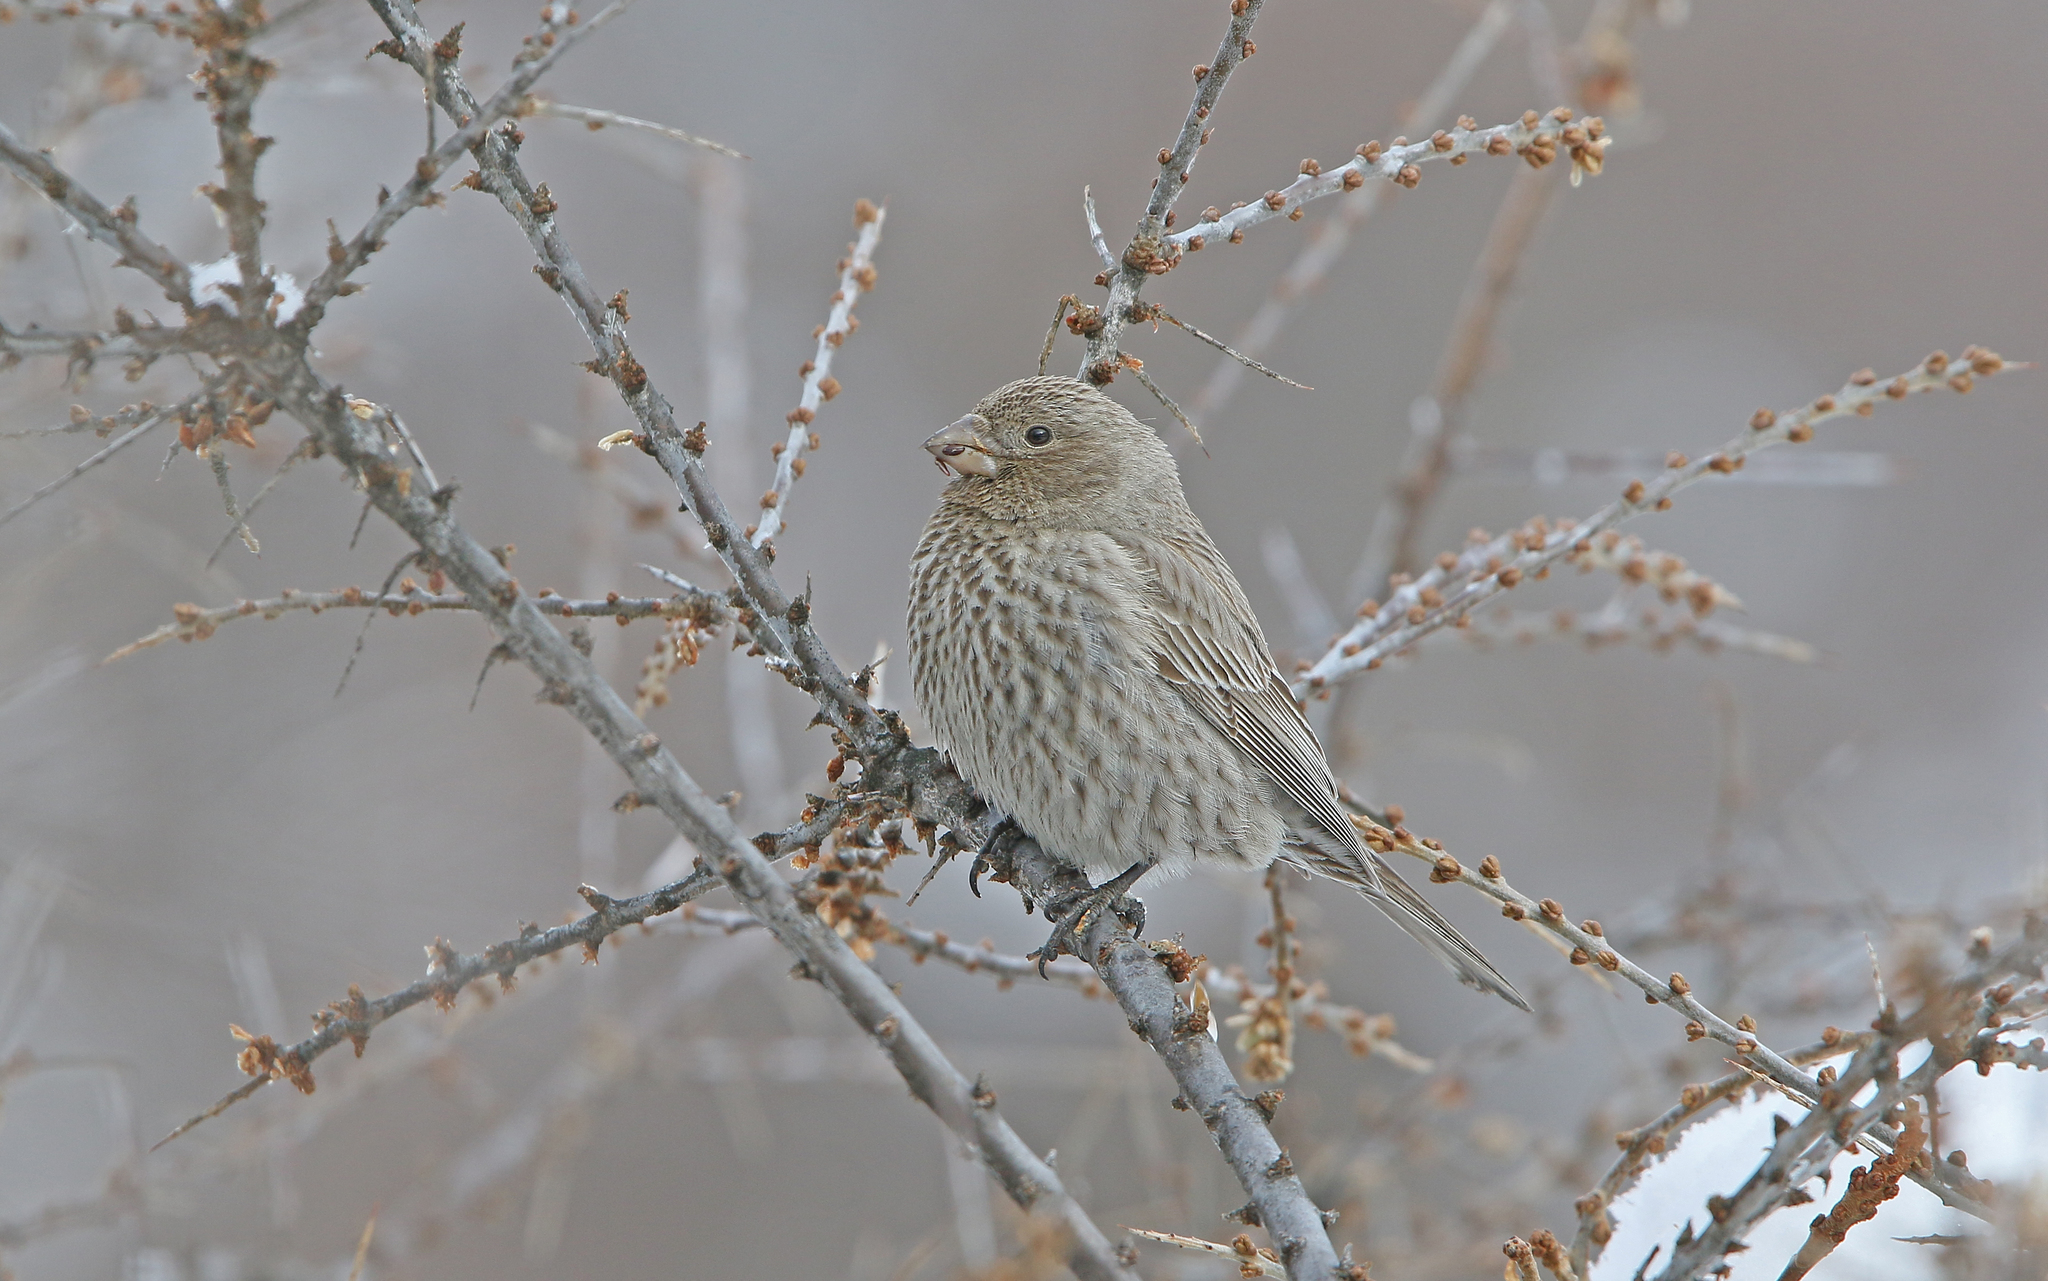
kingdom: Animalia
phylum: Chordata
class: Aves
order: Passeriformes
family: Fringillidae
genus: Carpodacus
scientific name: Carpodacus rubicilla
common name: Great rosefinch
